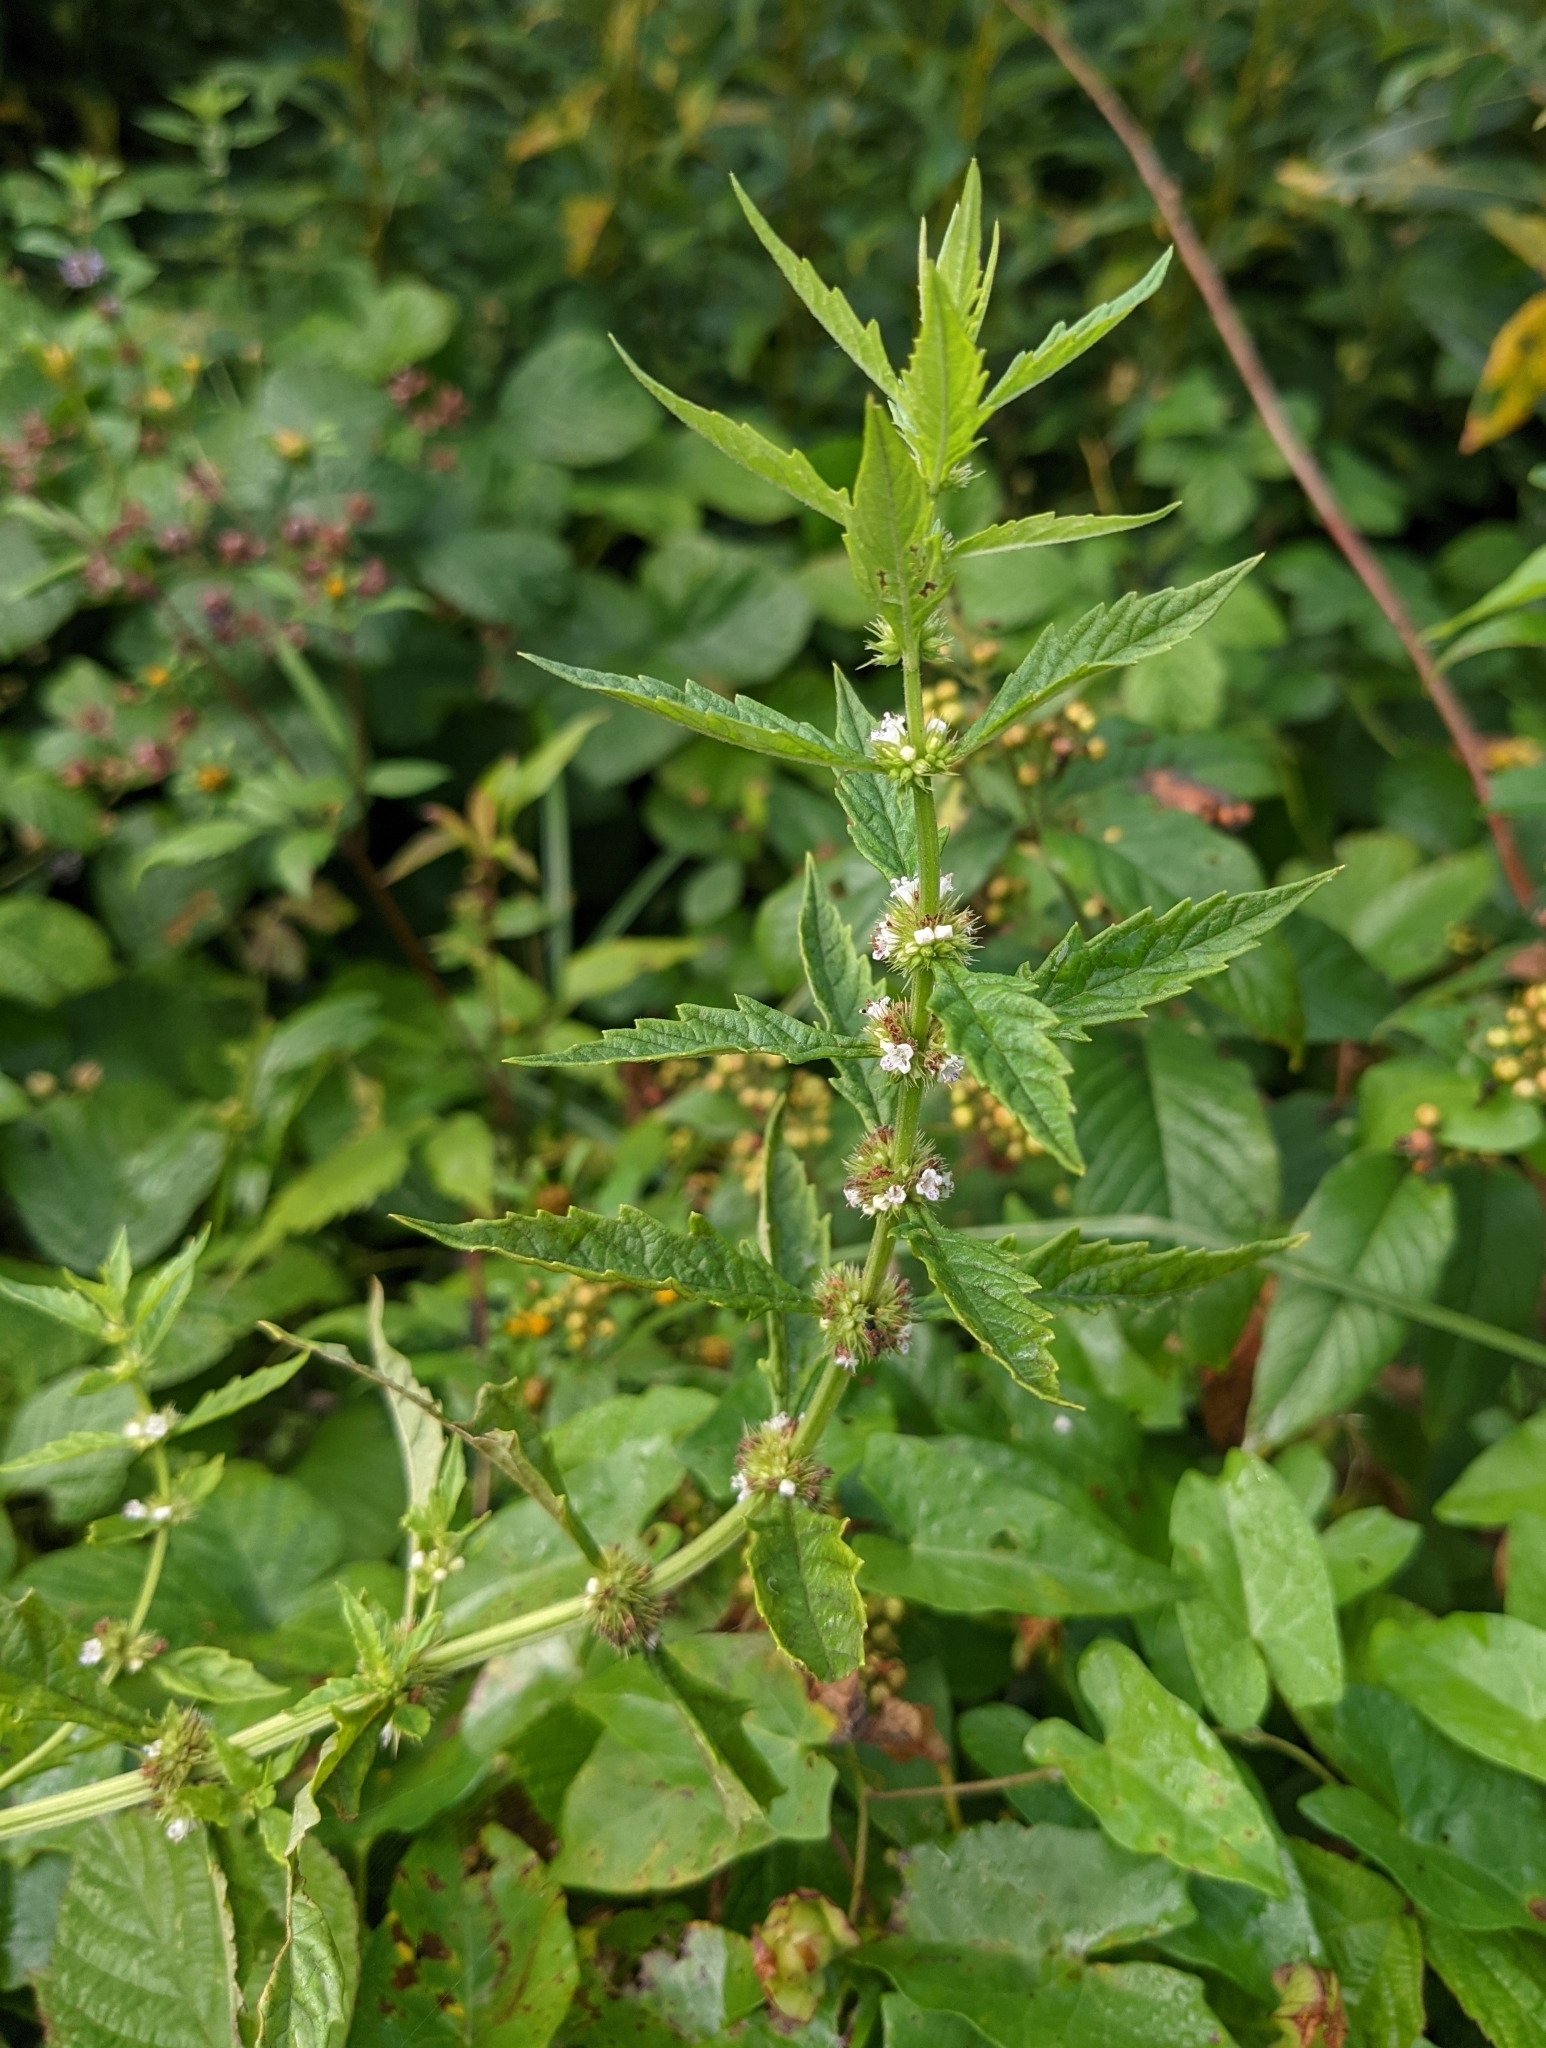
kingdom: Plantae
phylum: Tracheophyta
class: Magnoliopsida
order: Lamiales
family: Lamiaceae
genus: Lycopus
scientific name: Lycopus europaeus
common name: European bugleweed
